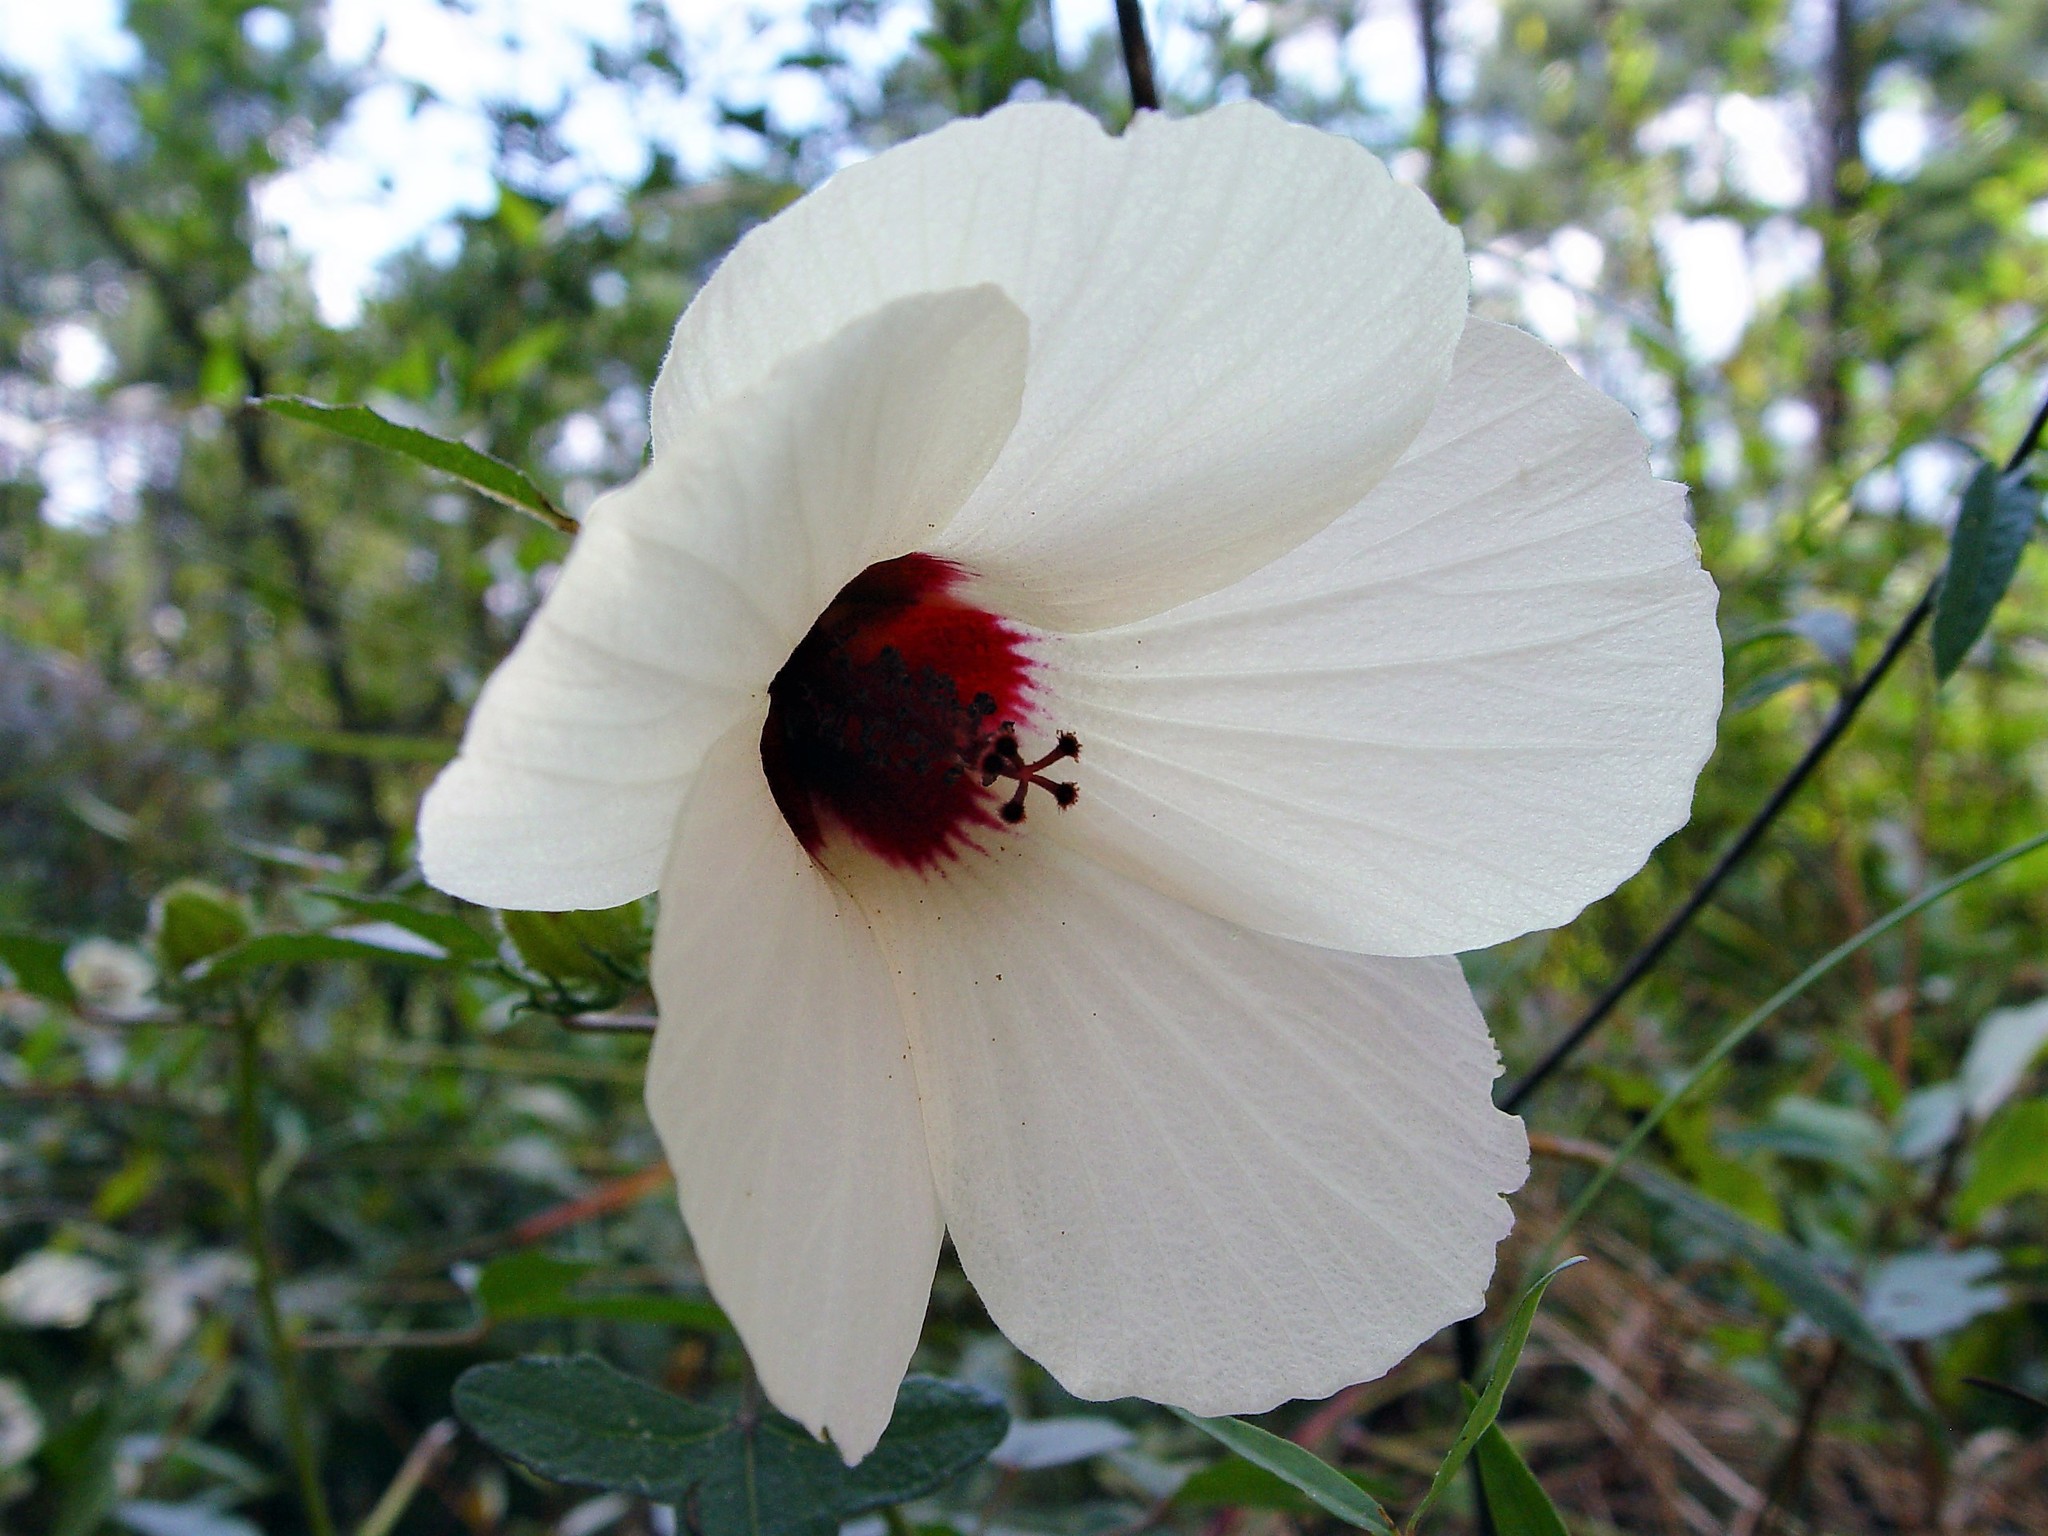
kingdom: Plantae
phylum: Tracheophyta
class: Magnoliopsida
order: Malvales
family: Malvaceae
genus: Hibiscus
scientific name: Hibiscus aculeatus
